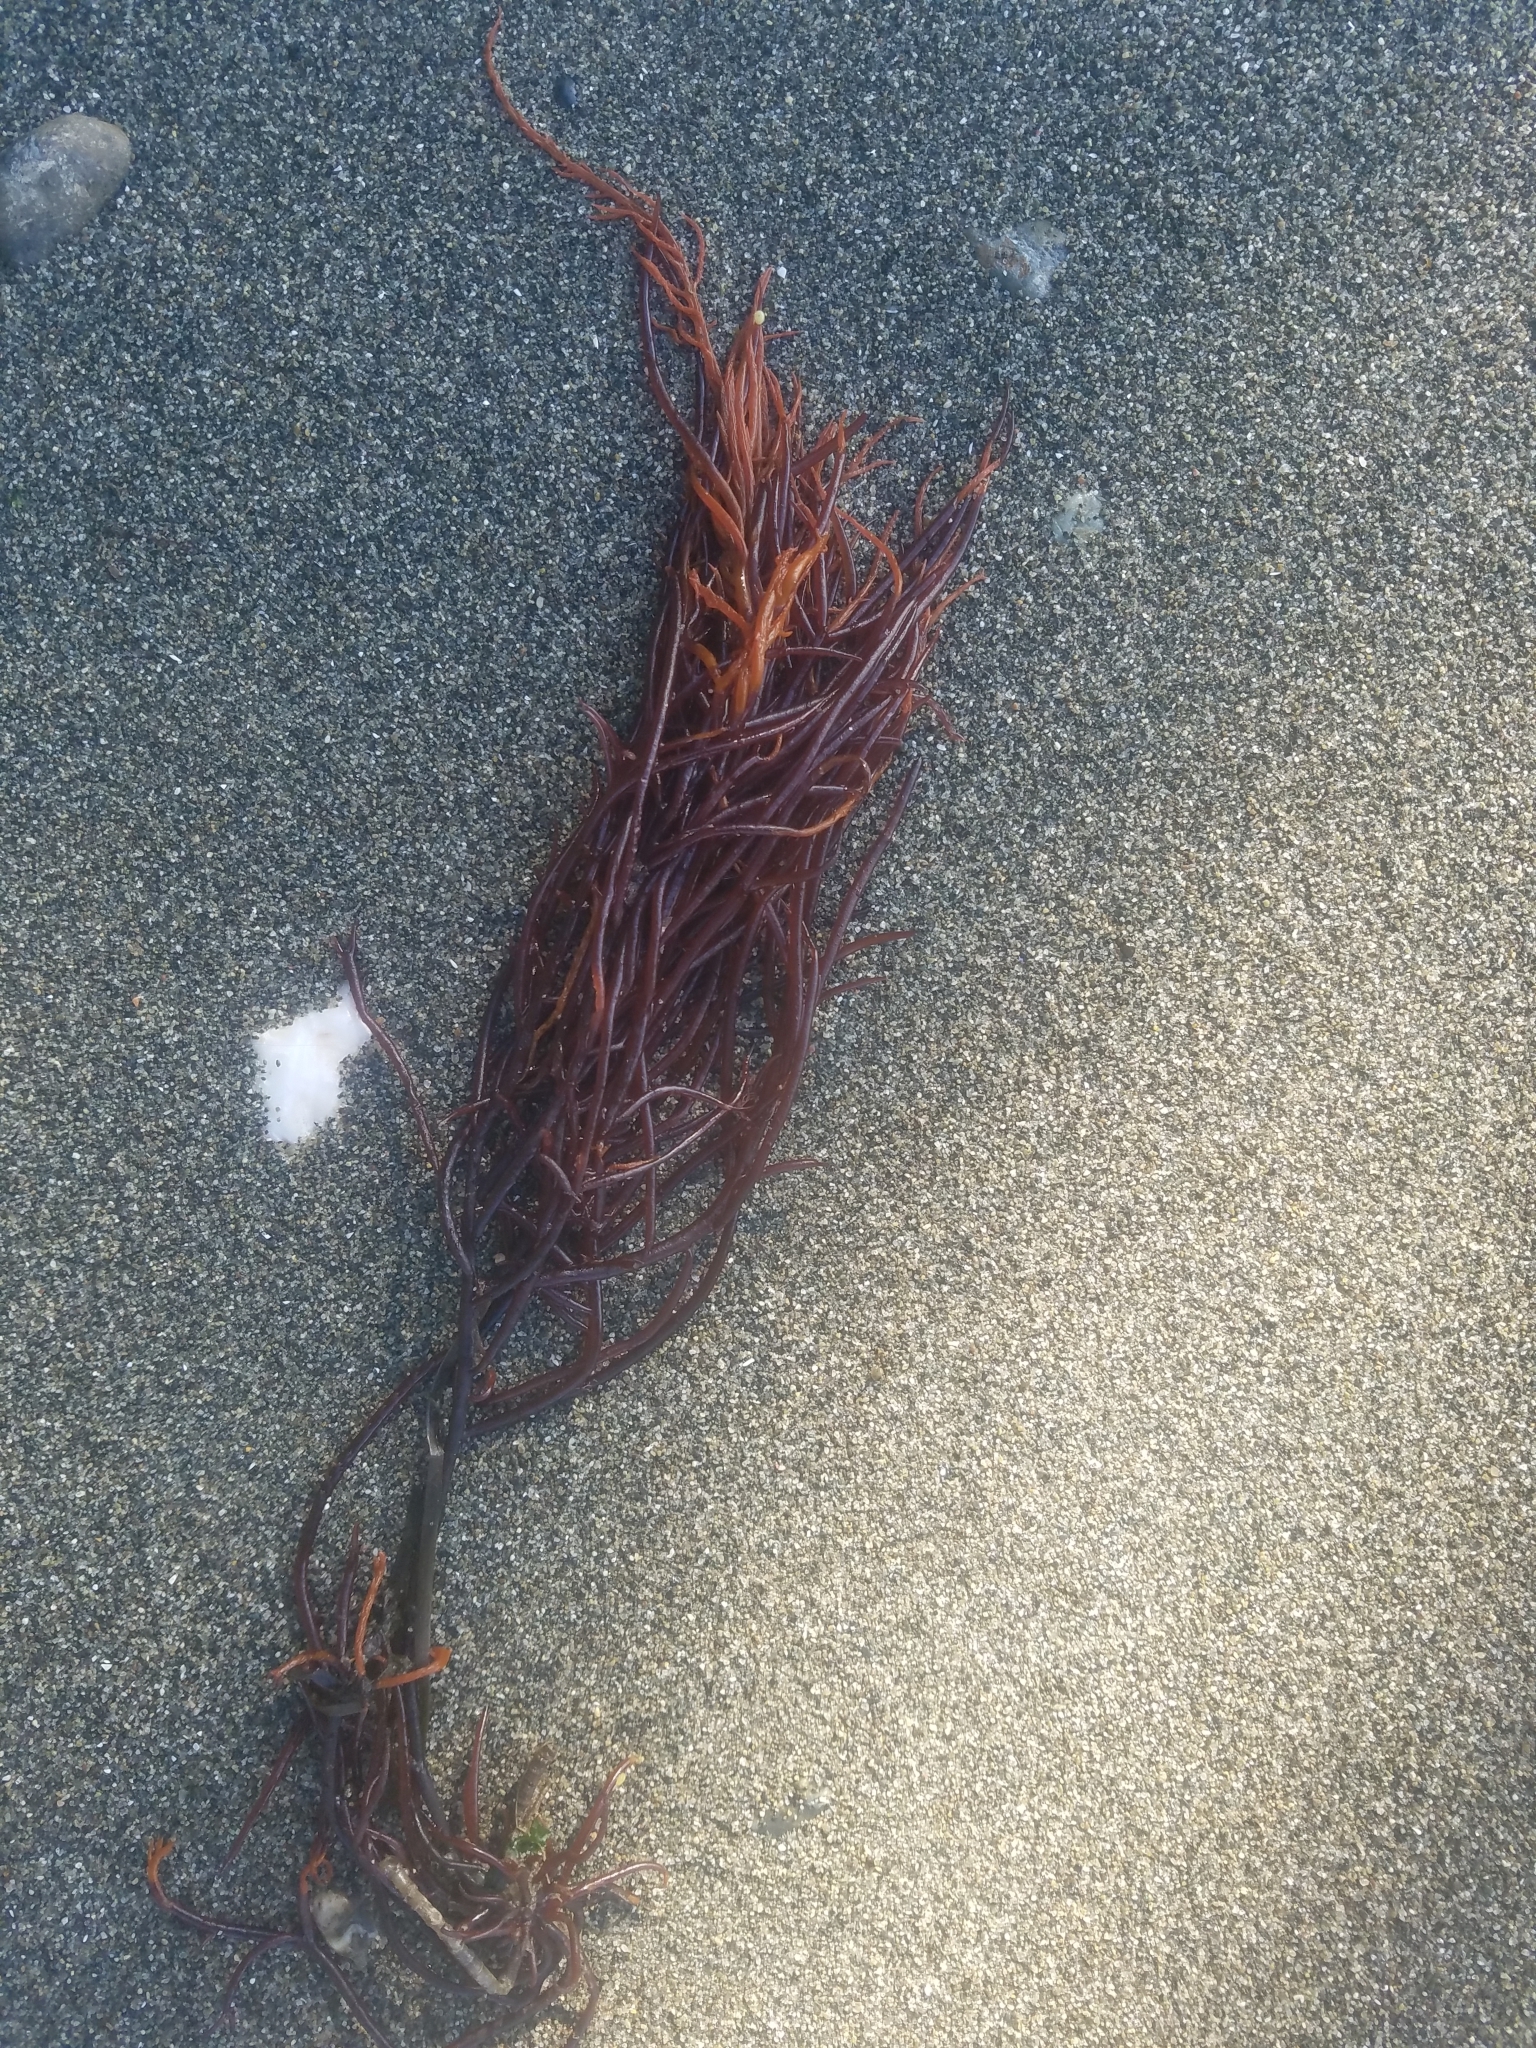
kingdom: Plantae
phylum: Rhodophyta
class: Florideophyceae
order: Gigartinales
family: Solieriaceae
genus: Sarcodiotheca
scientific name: Sarcodiotheca gaudichaudii
